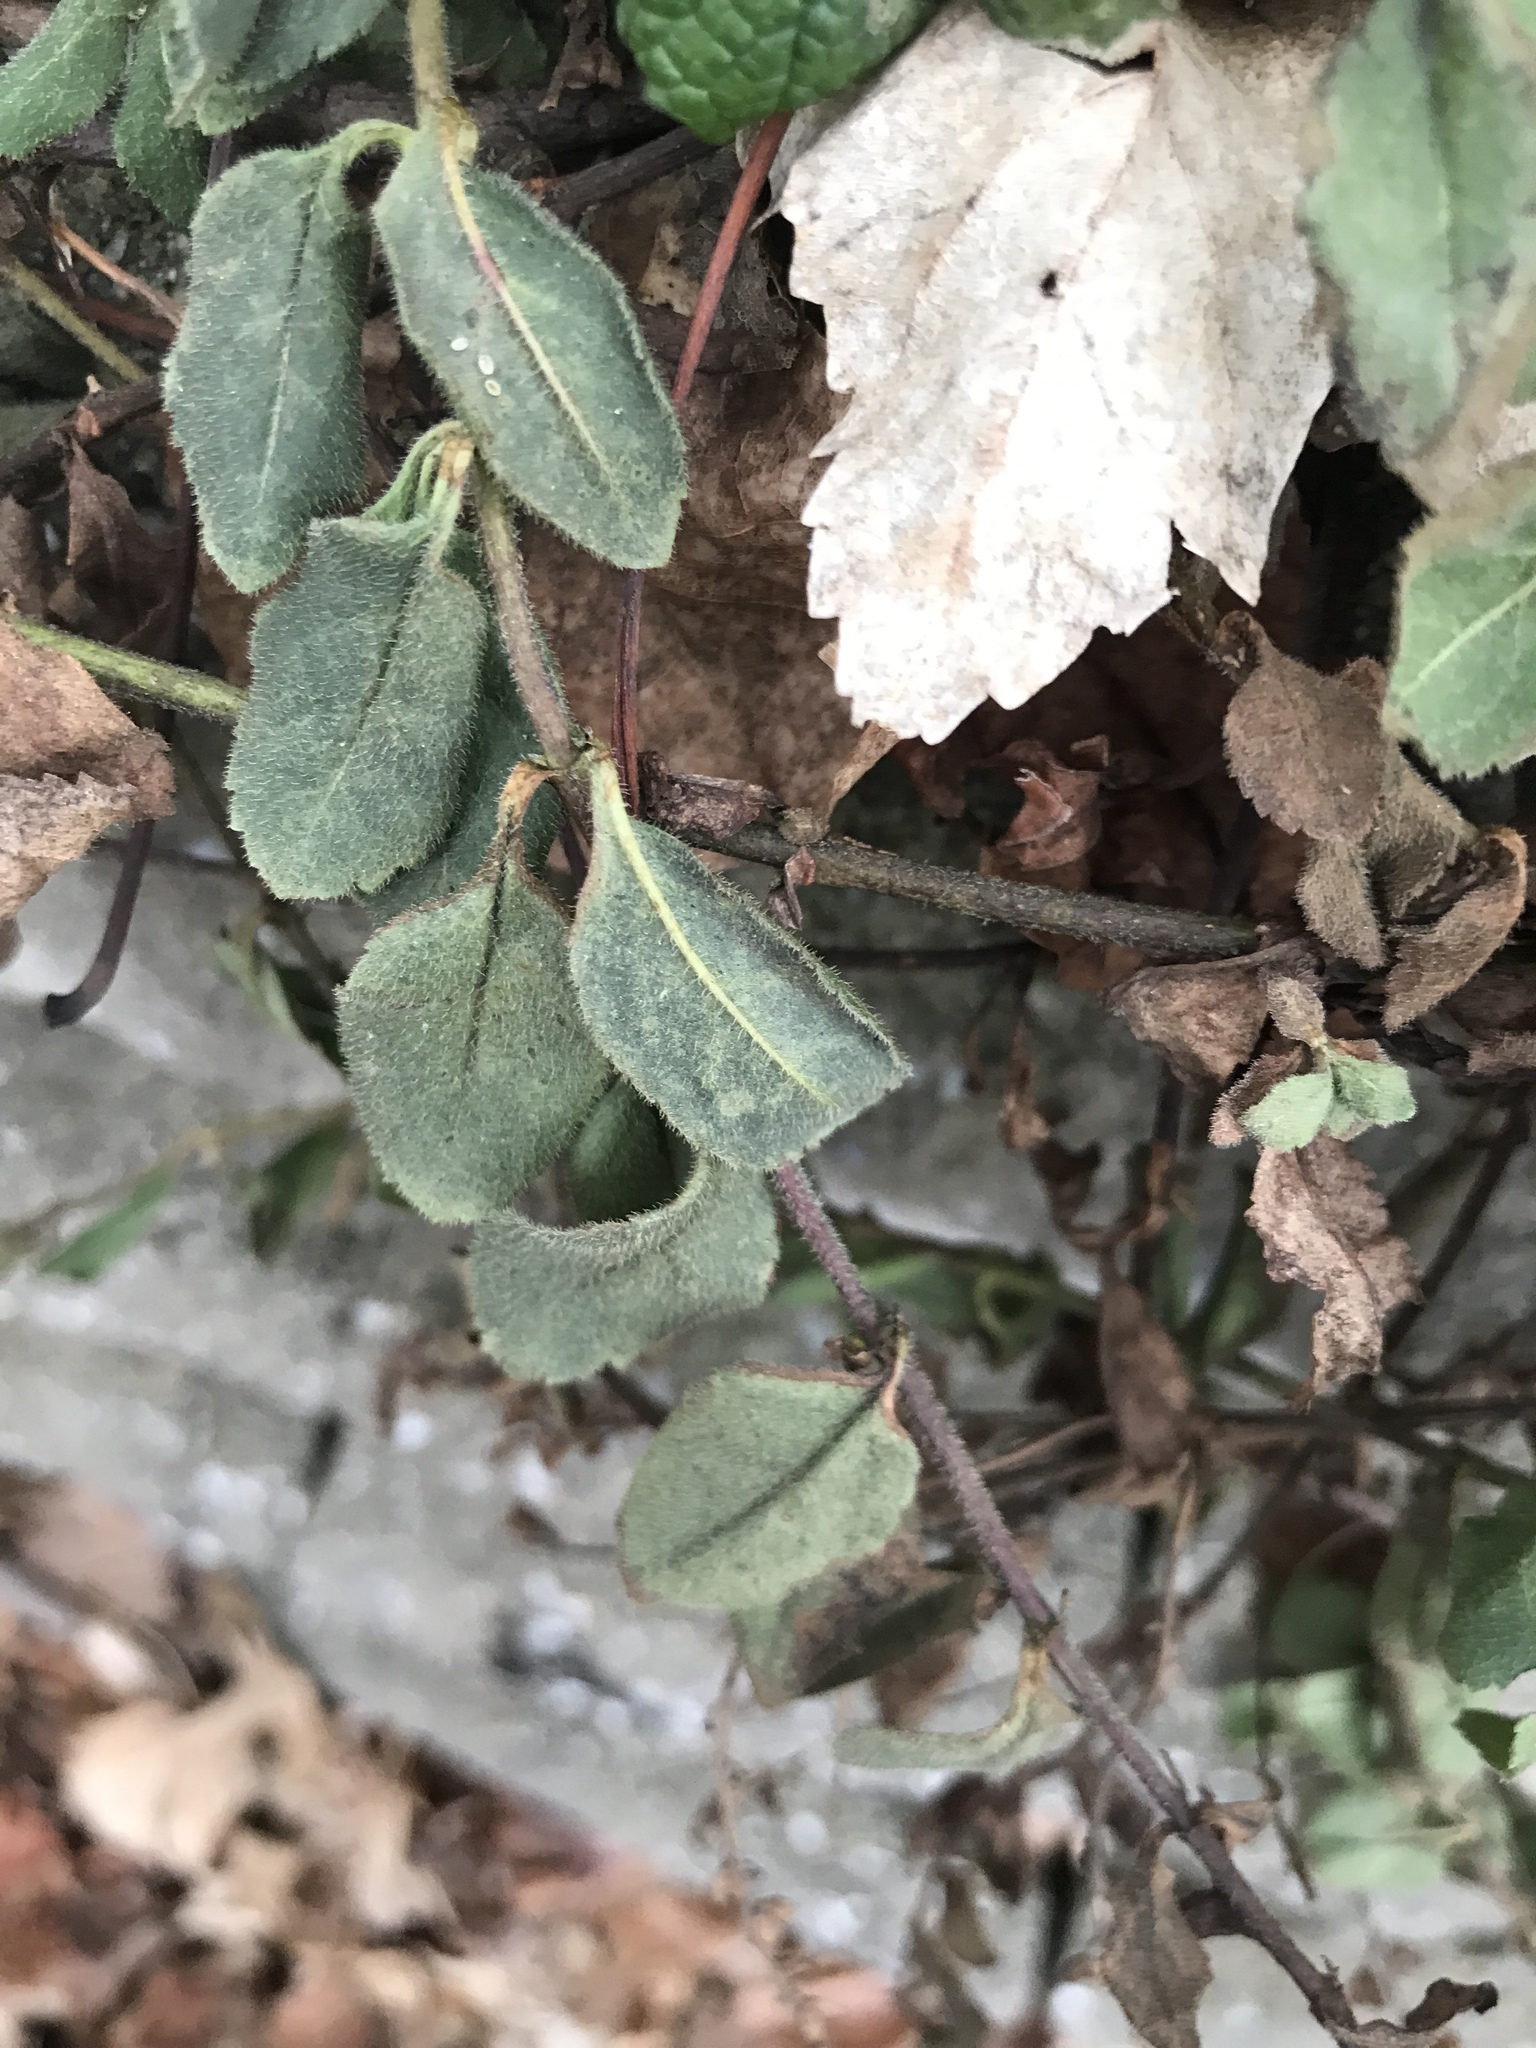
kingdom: Plantae
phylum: Tracheophyta
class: Magnoliopsida
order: Lamiales
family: Plantaginaceae
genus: Veronica
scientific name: Veronica officinalis
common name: Common speedwell
